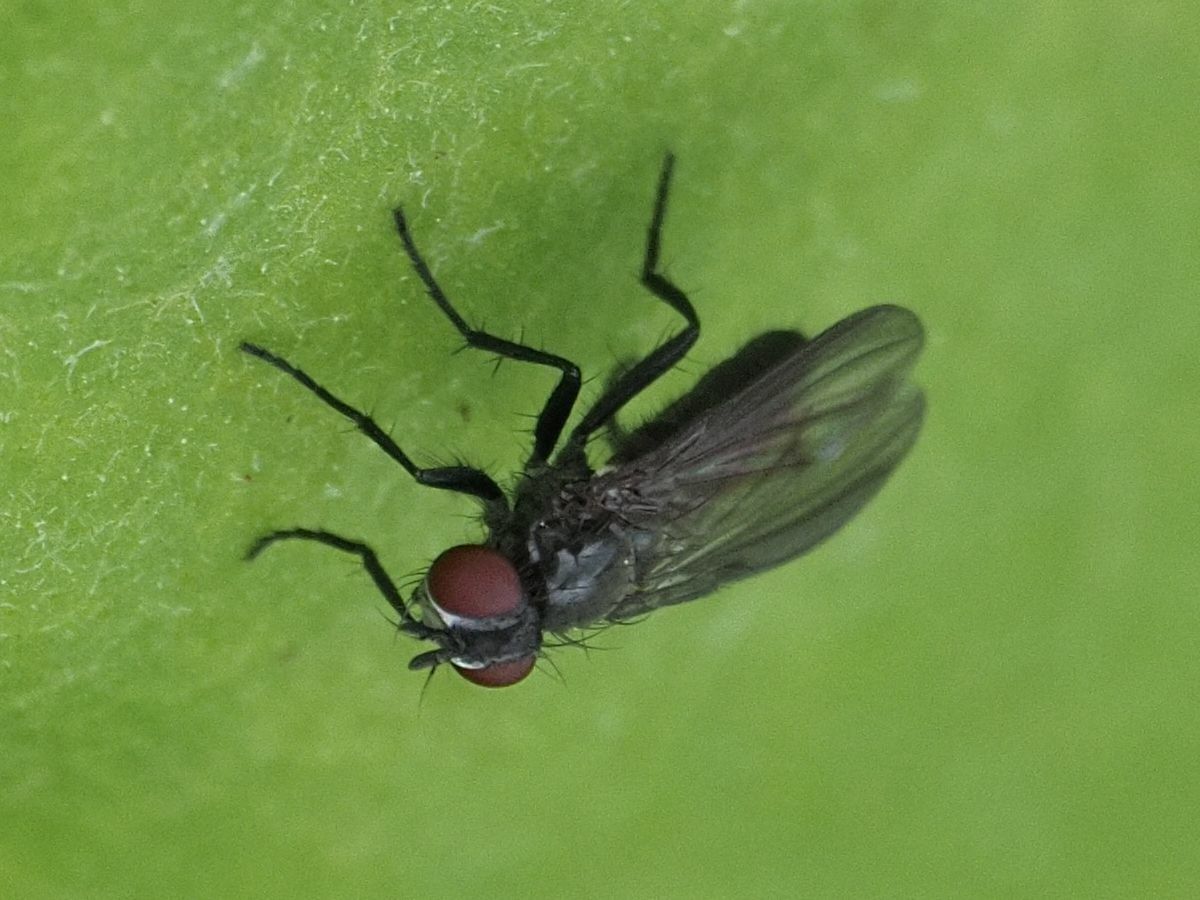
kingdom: Animalia
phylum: Arthropoda
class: Insecta
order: Diptera
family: Calliphoridae
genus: Melanomya
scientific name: Melanomya nana
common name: Little black blowfly
